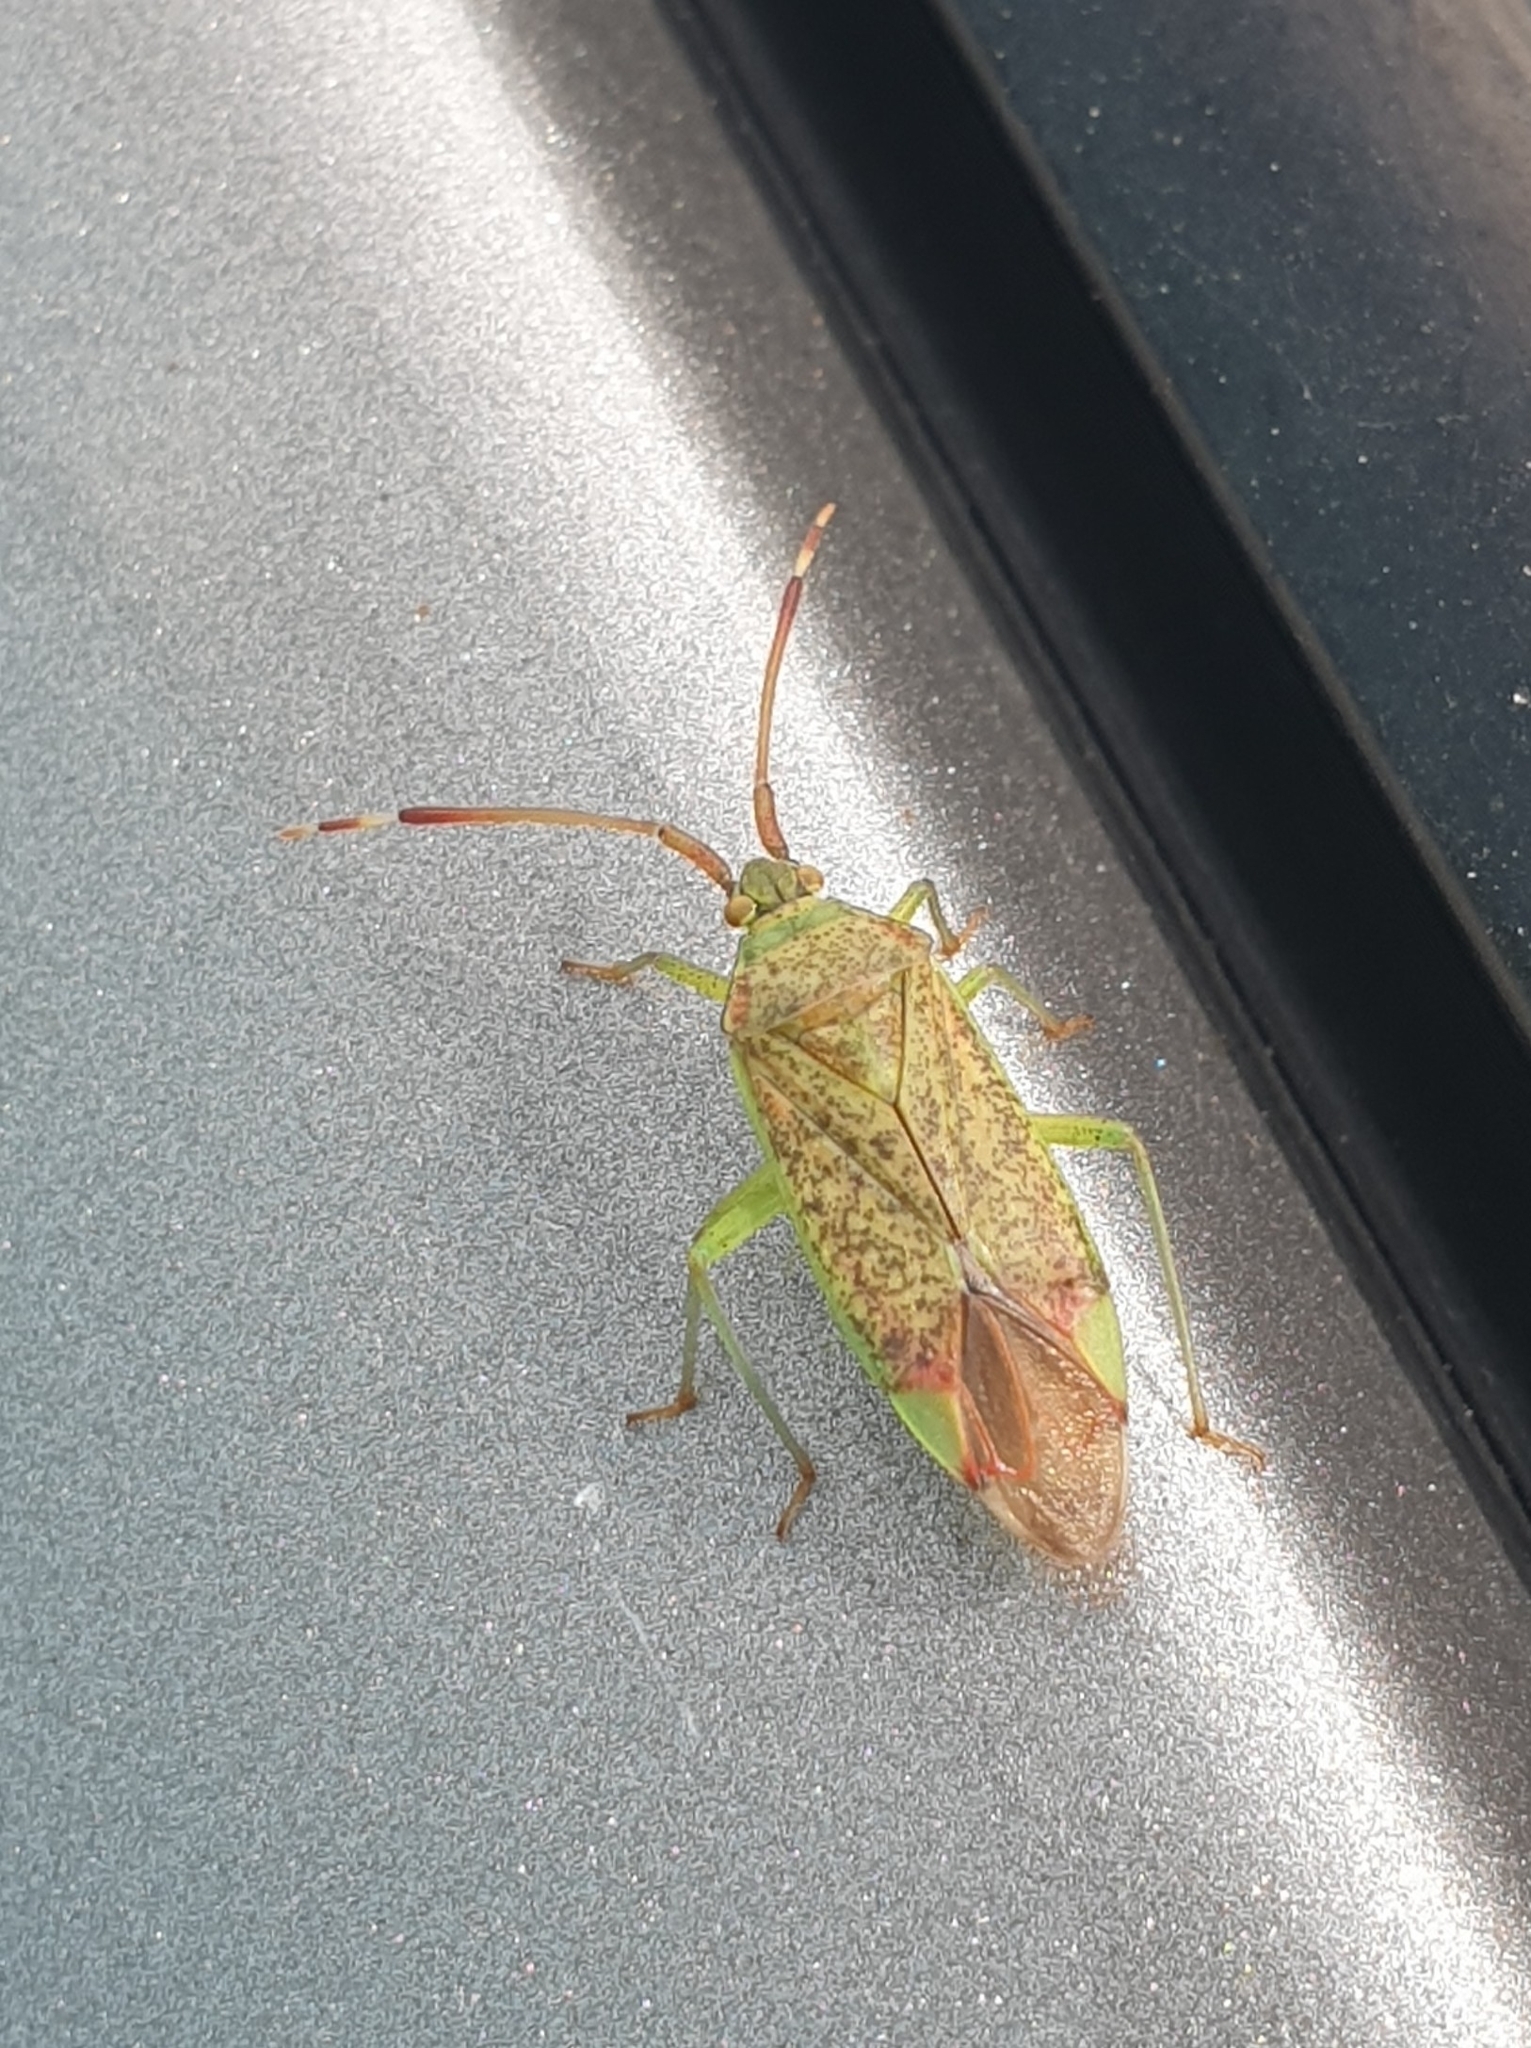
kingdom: Animalia
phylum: Arthropoda
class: Insecta
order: Hemiptera
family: Miridae
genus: Pantilius
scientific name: Pantilius tunicatus
